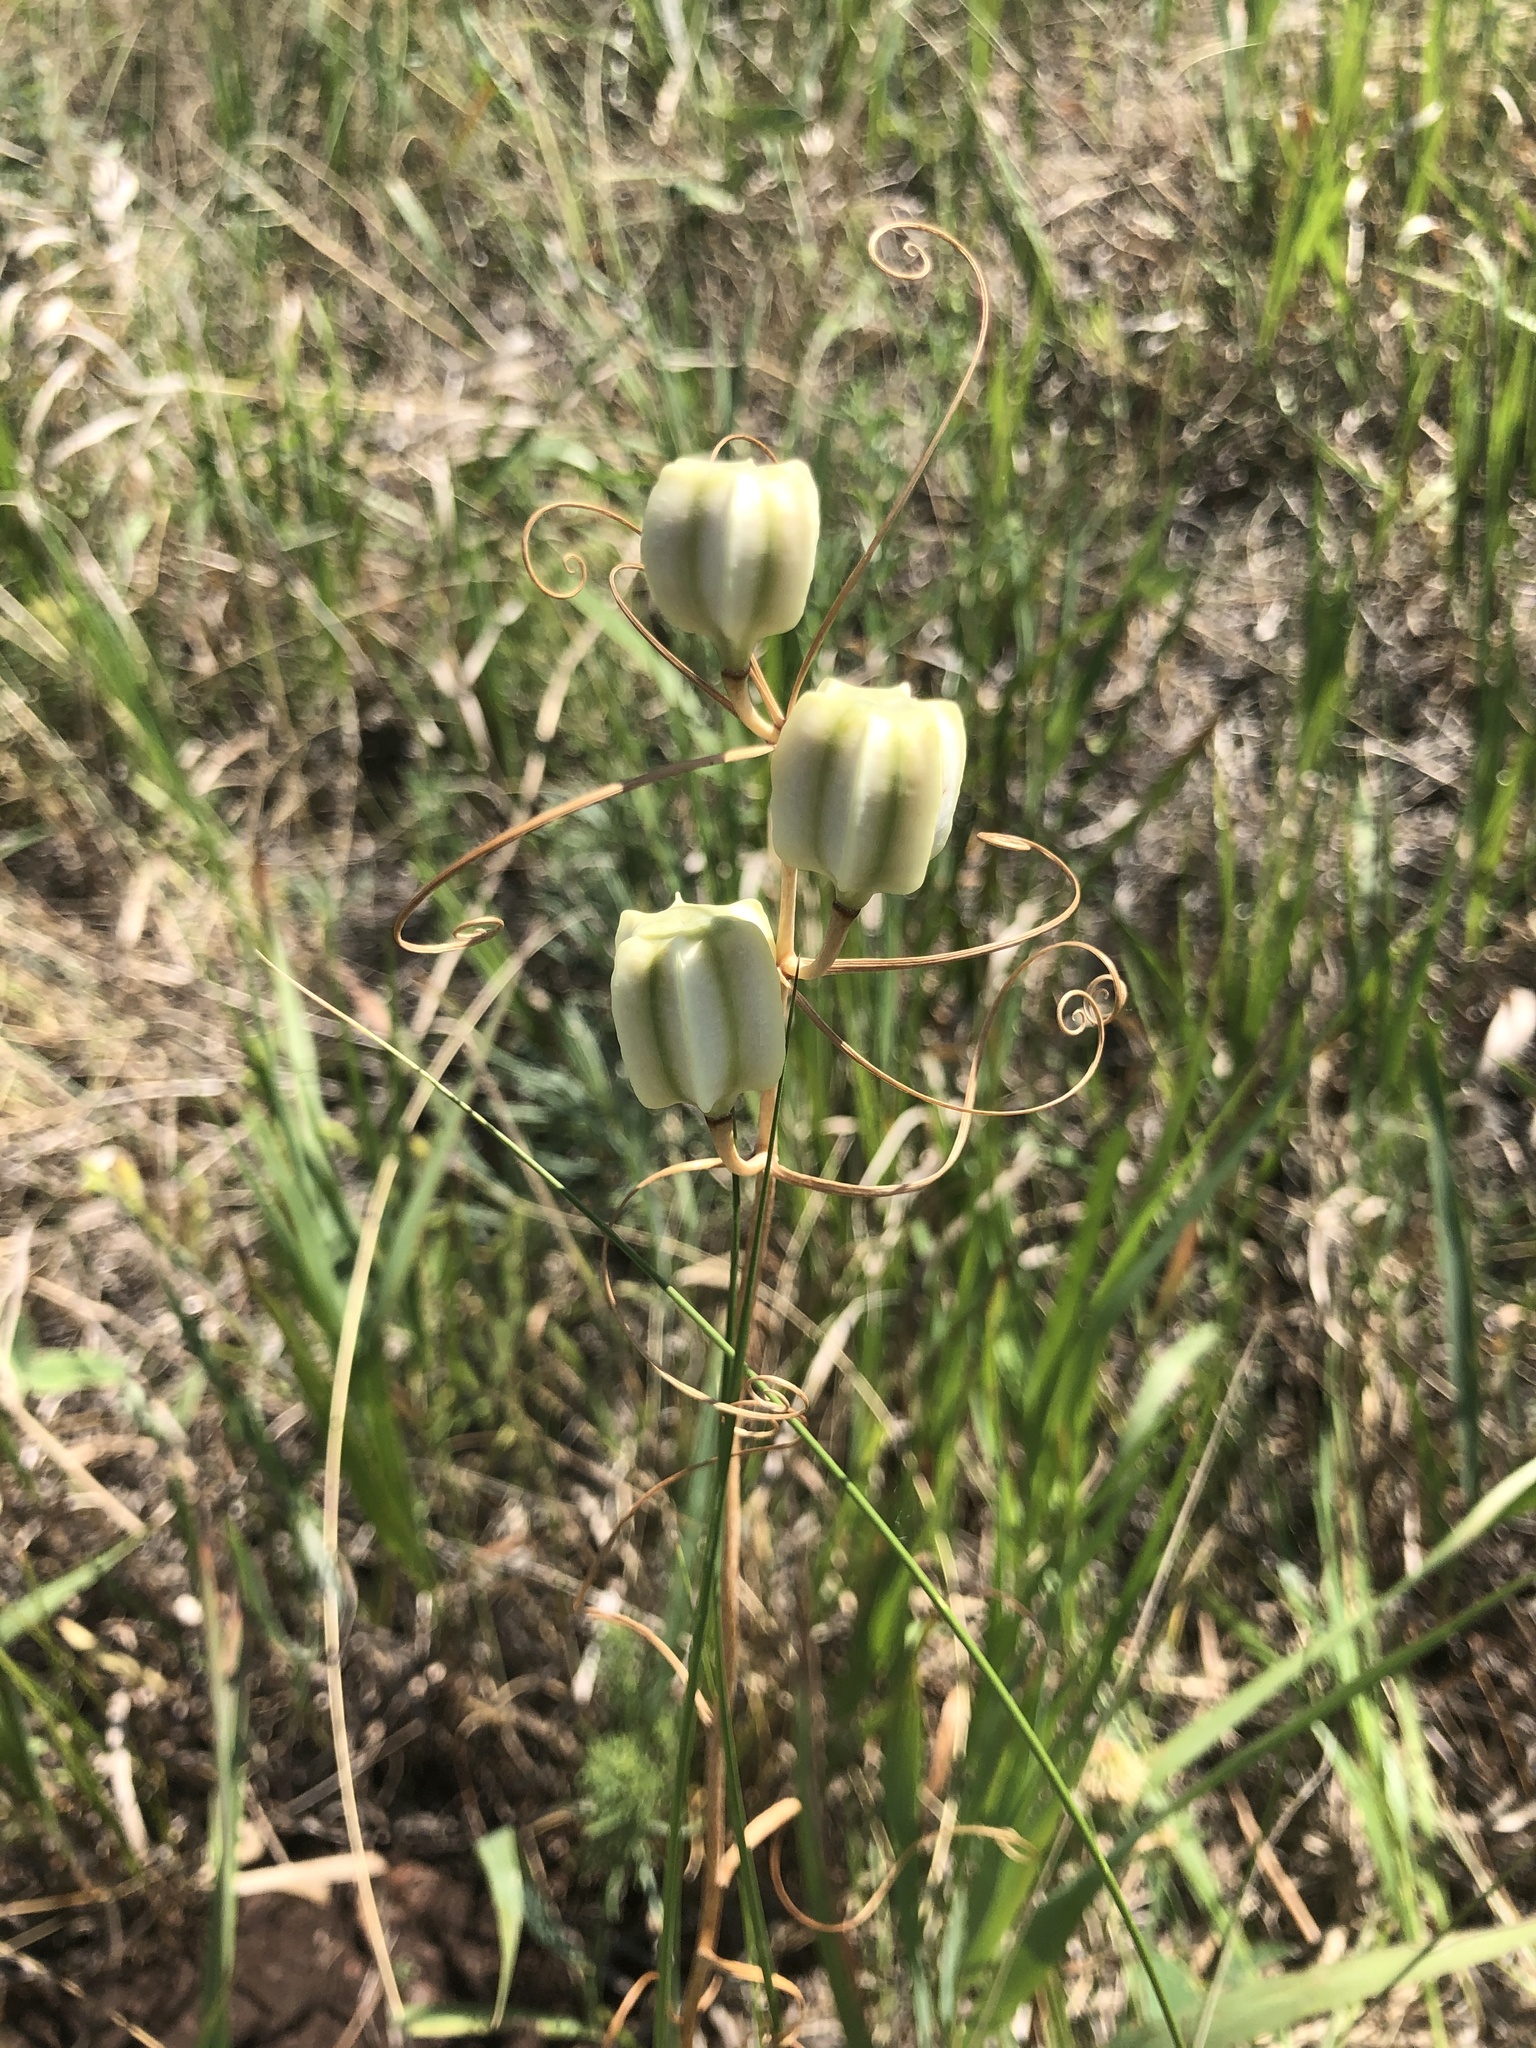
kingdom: Plantae
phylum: Tracheophyta
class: Liliopsida
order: Liliales
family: Liliaceae
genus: Fritillaria
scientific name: Fritillaria ruthenica
